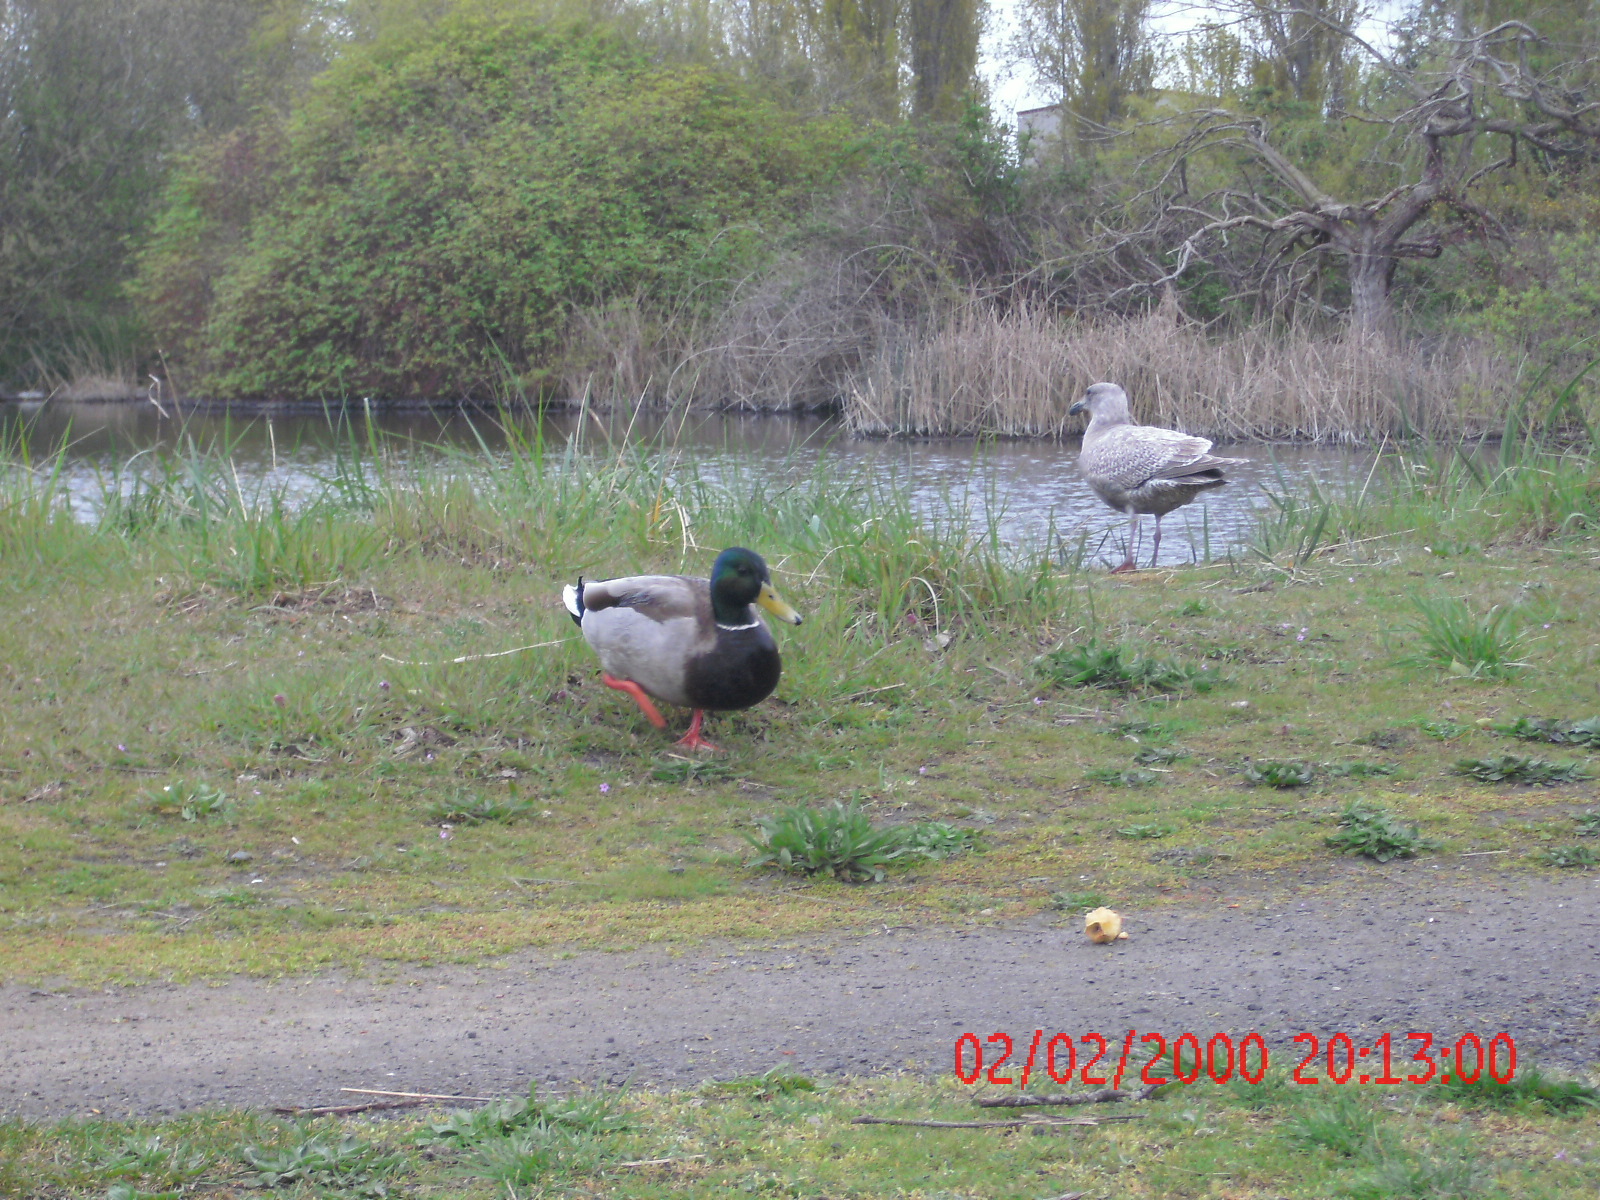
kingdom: Animalia
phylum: Chordata
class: Aves
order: Charadriiformes
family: Laridae
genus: Larus
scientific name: Larus
